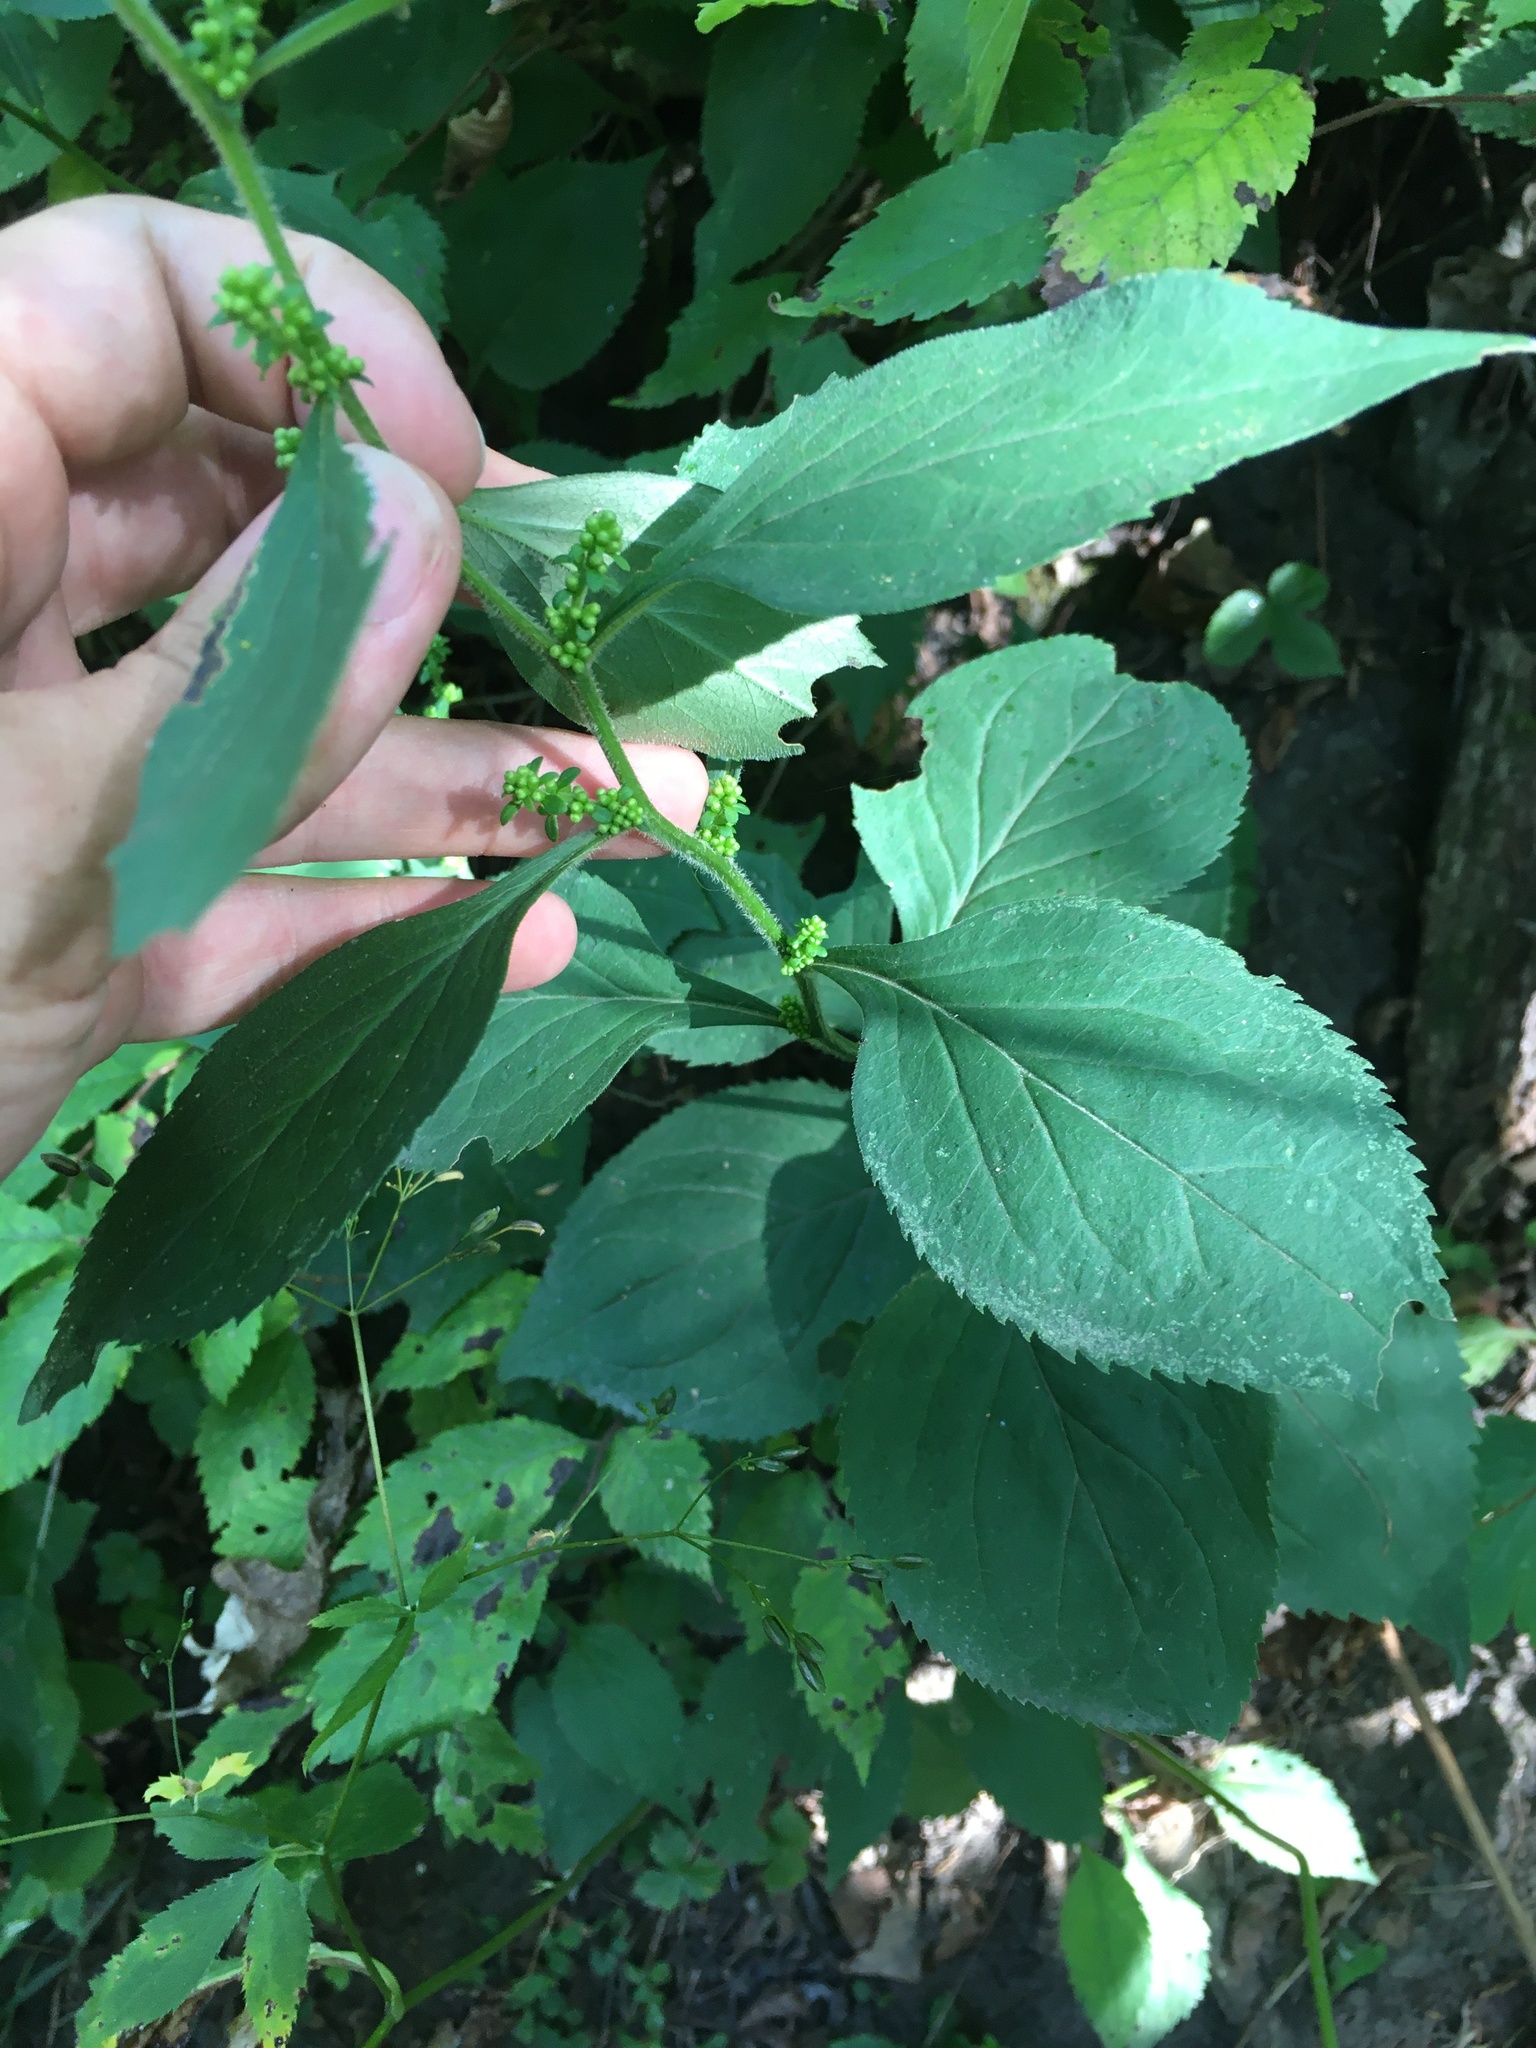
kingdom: Plantae
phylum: Tracheophyta
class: Magnoliopsida
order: Asterales
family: Asteraceae
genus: Solidago
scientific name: Solidago flexicaulis
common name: Zig-zag goldenrod
